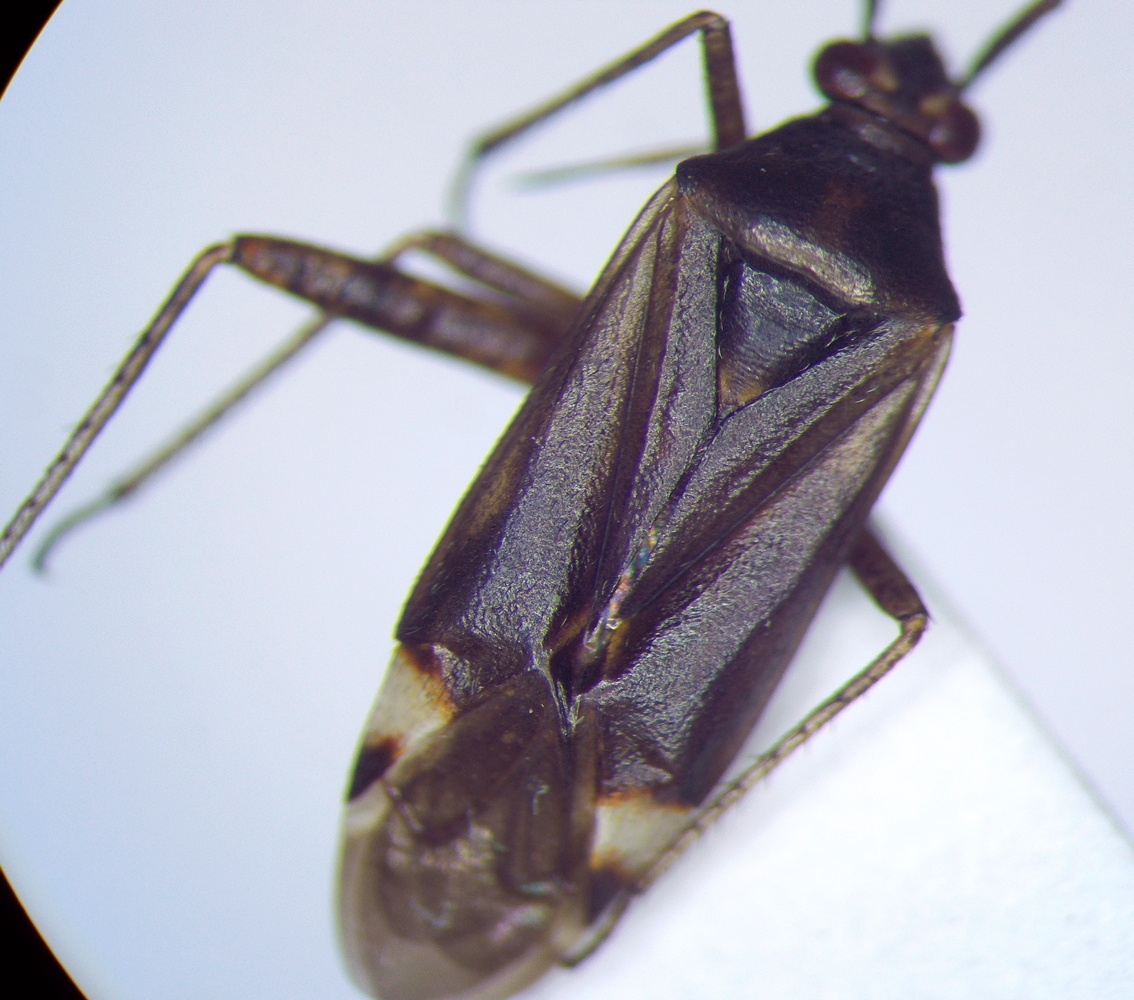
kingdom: Animalia
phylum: Arthropoda
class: Insecta
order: Hemiptera
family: Miridae
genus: Closterotomus
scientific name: Closterotomus fulvomaculatus
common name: Spotted plant bug
